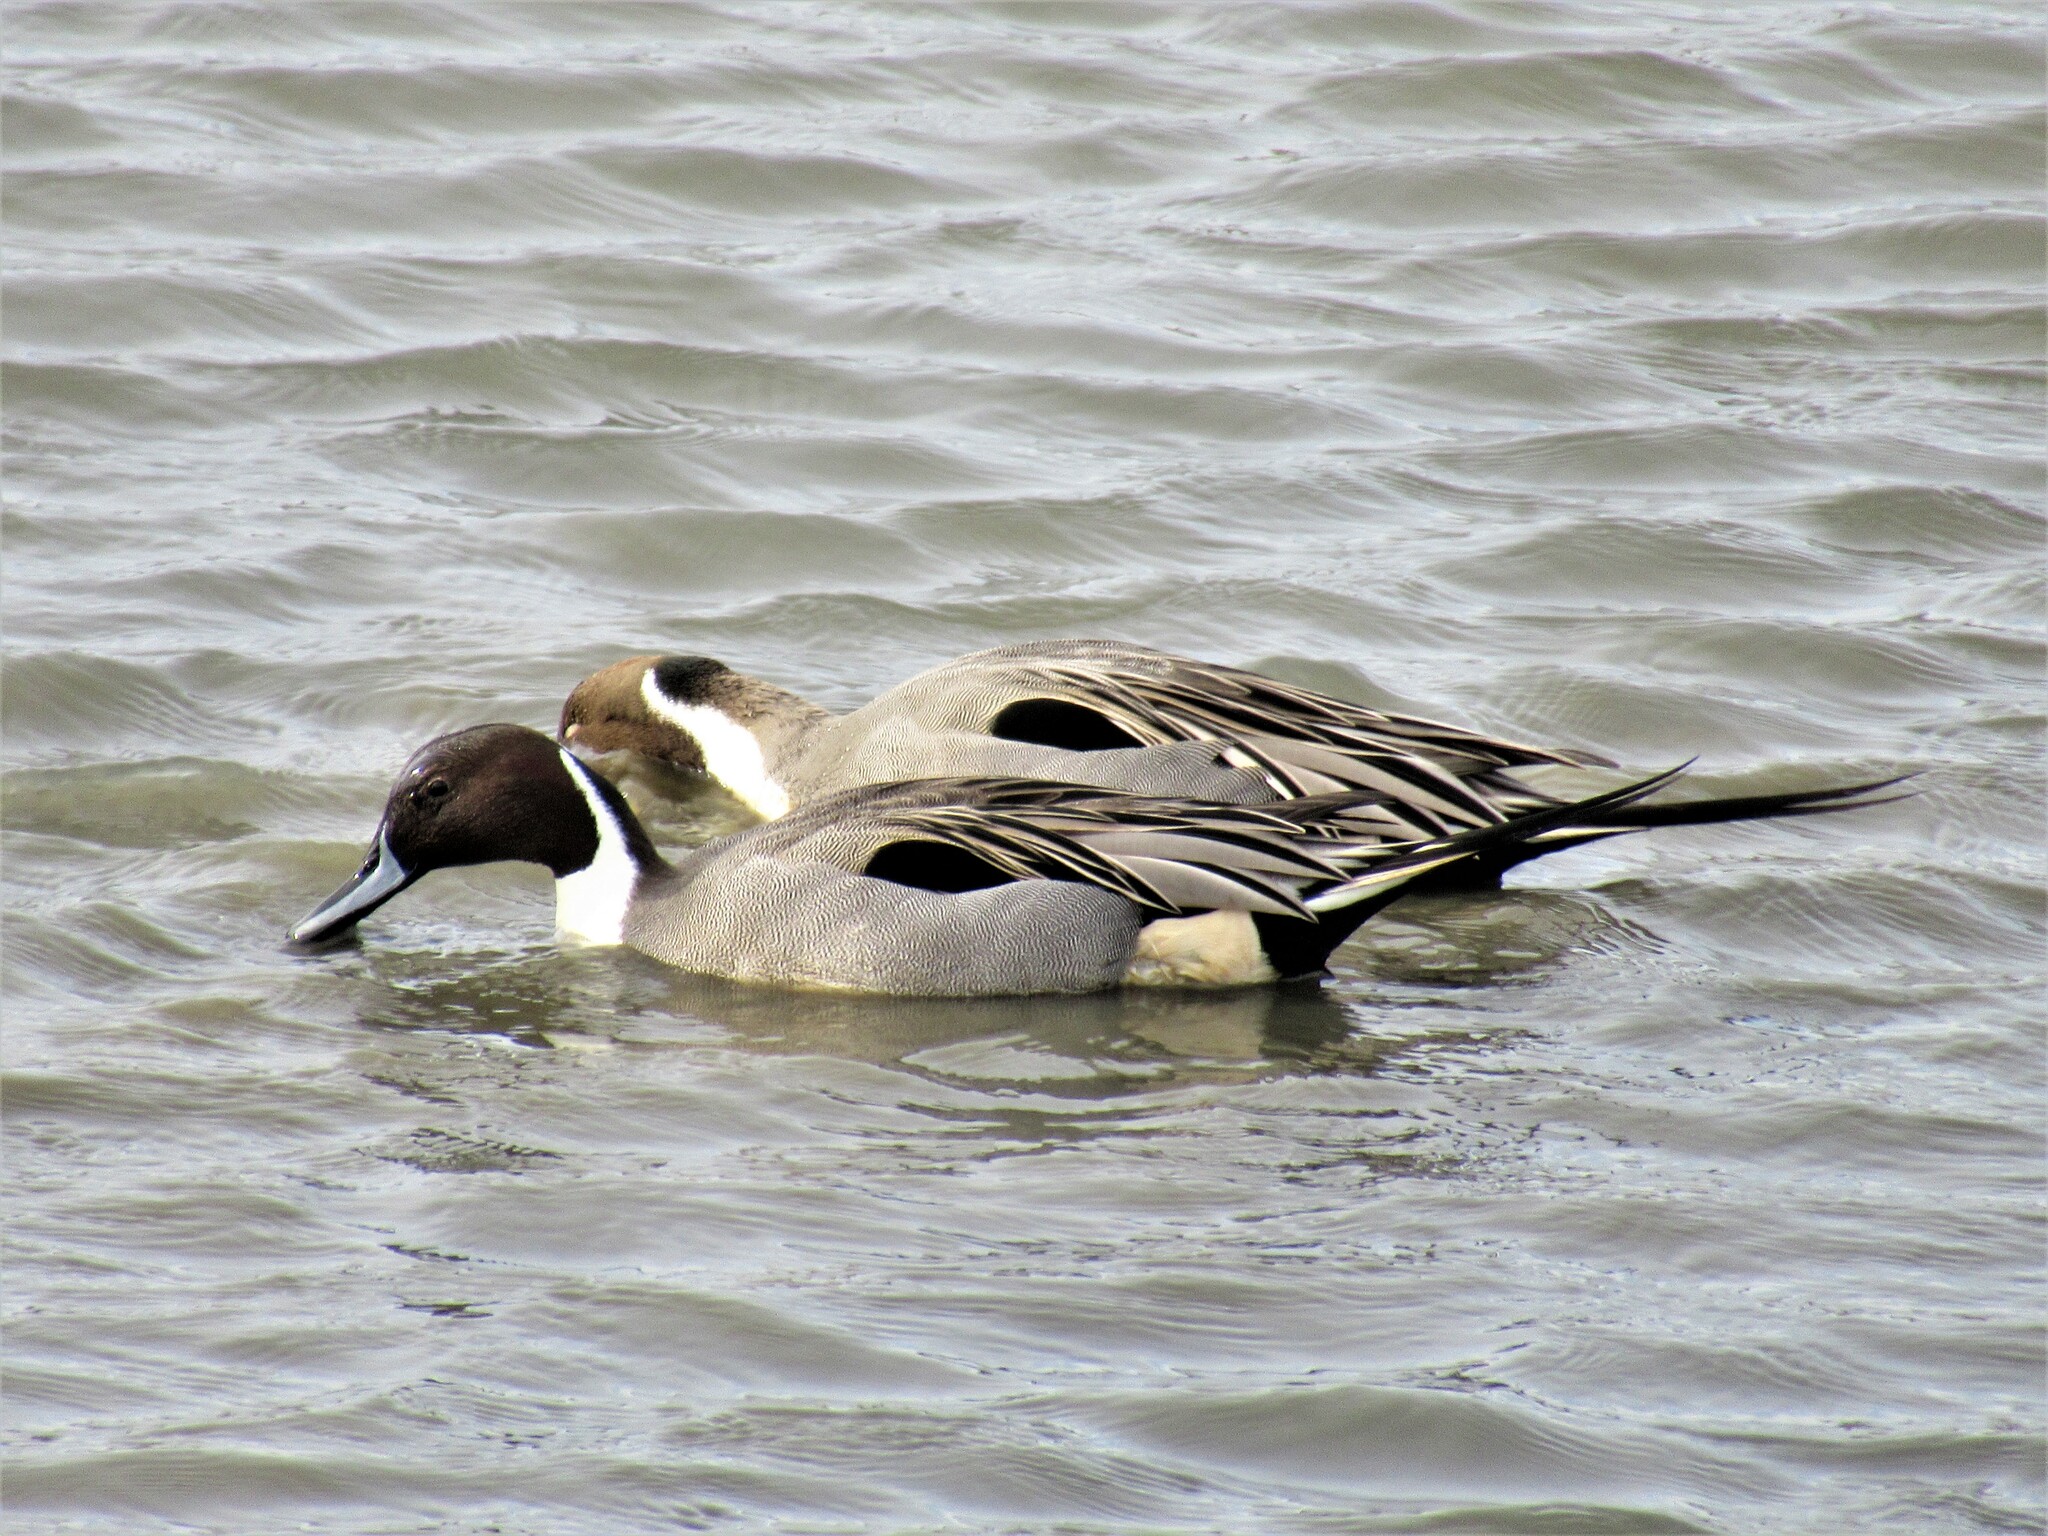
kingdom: Animalia
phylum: Chordata
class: Aves
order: Anseriformes
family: Anatidae
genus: Anas
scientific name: Anas acuta
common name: Northern pintail
